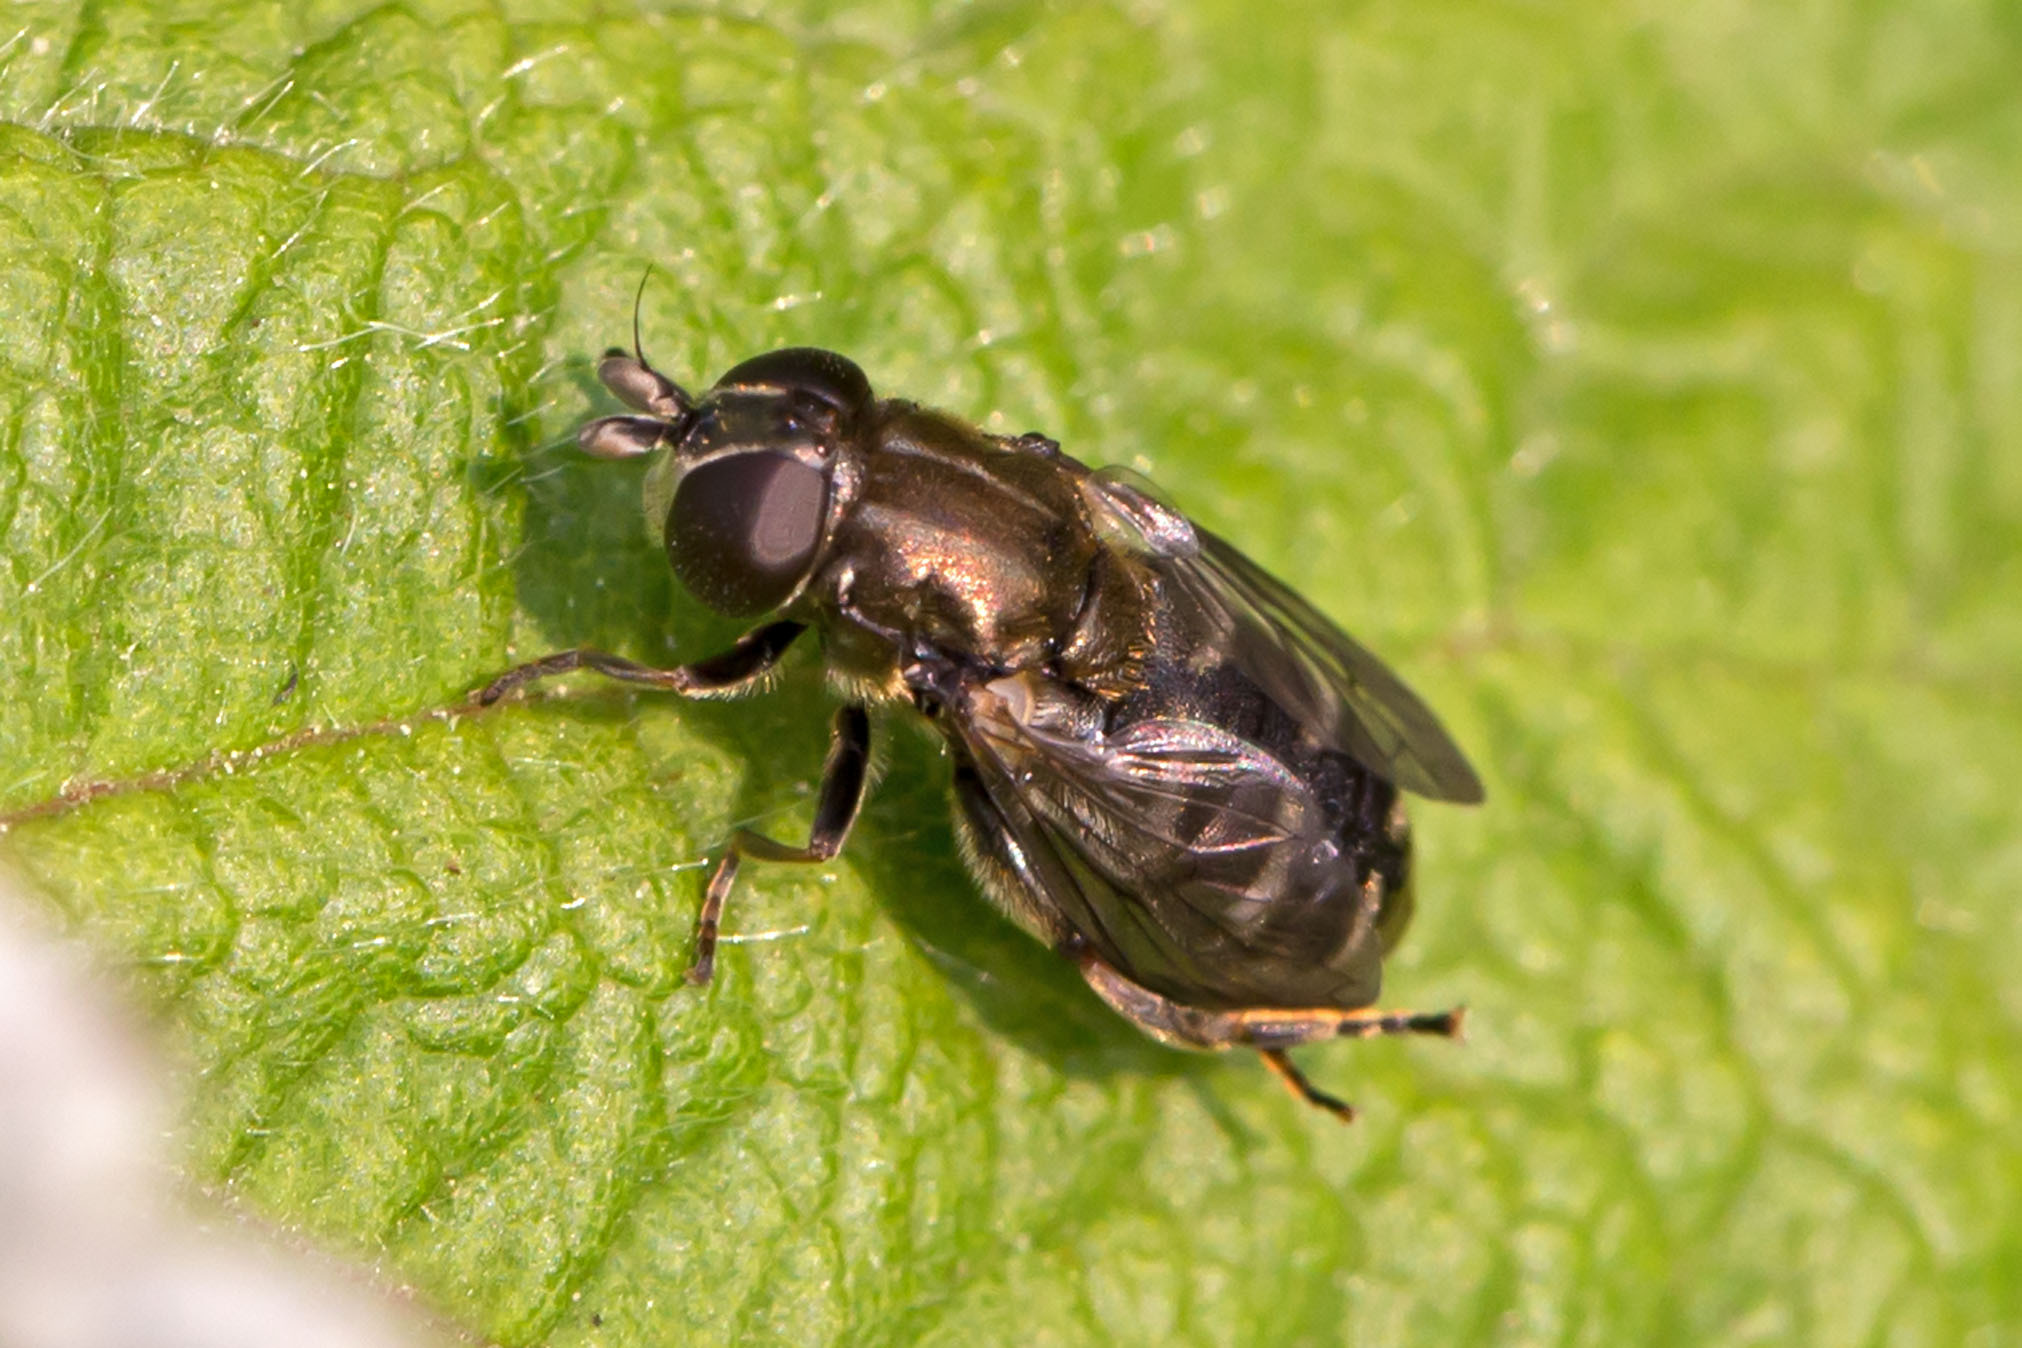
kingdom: Animalia
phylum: Arthropoda
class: Insecta
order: Diptera
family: Syrphidae
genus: Eumerus
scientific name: Eumerus
